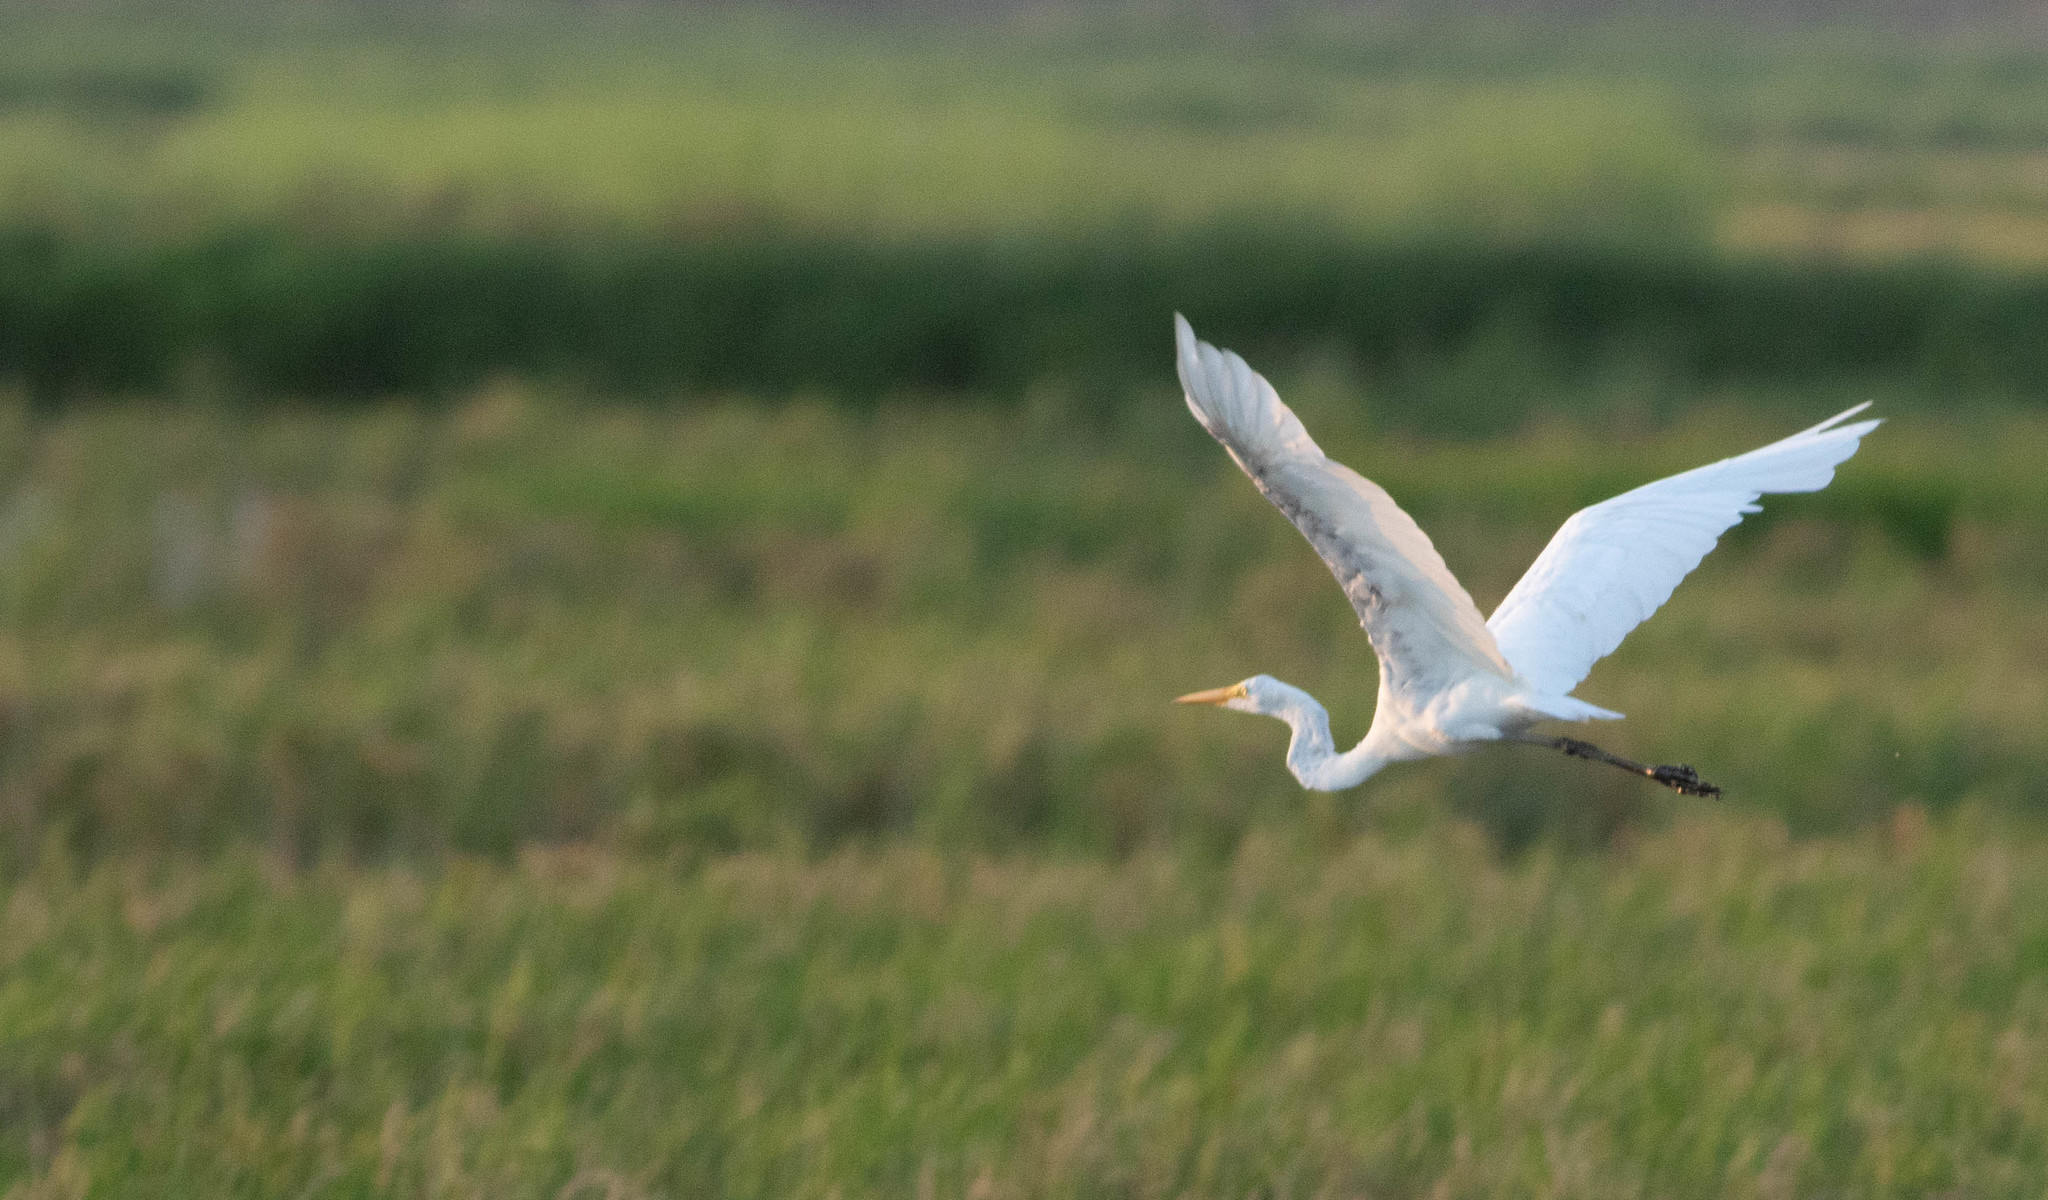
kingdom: Animalia
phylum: Chordata
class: Aves
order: Pelecaniformes
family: Ardeidae
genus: Ardea
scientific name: Ardea alba
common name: Great egret
